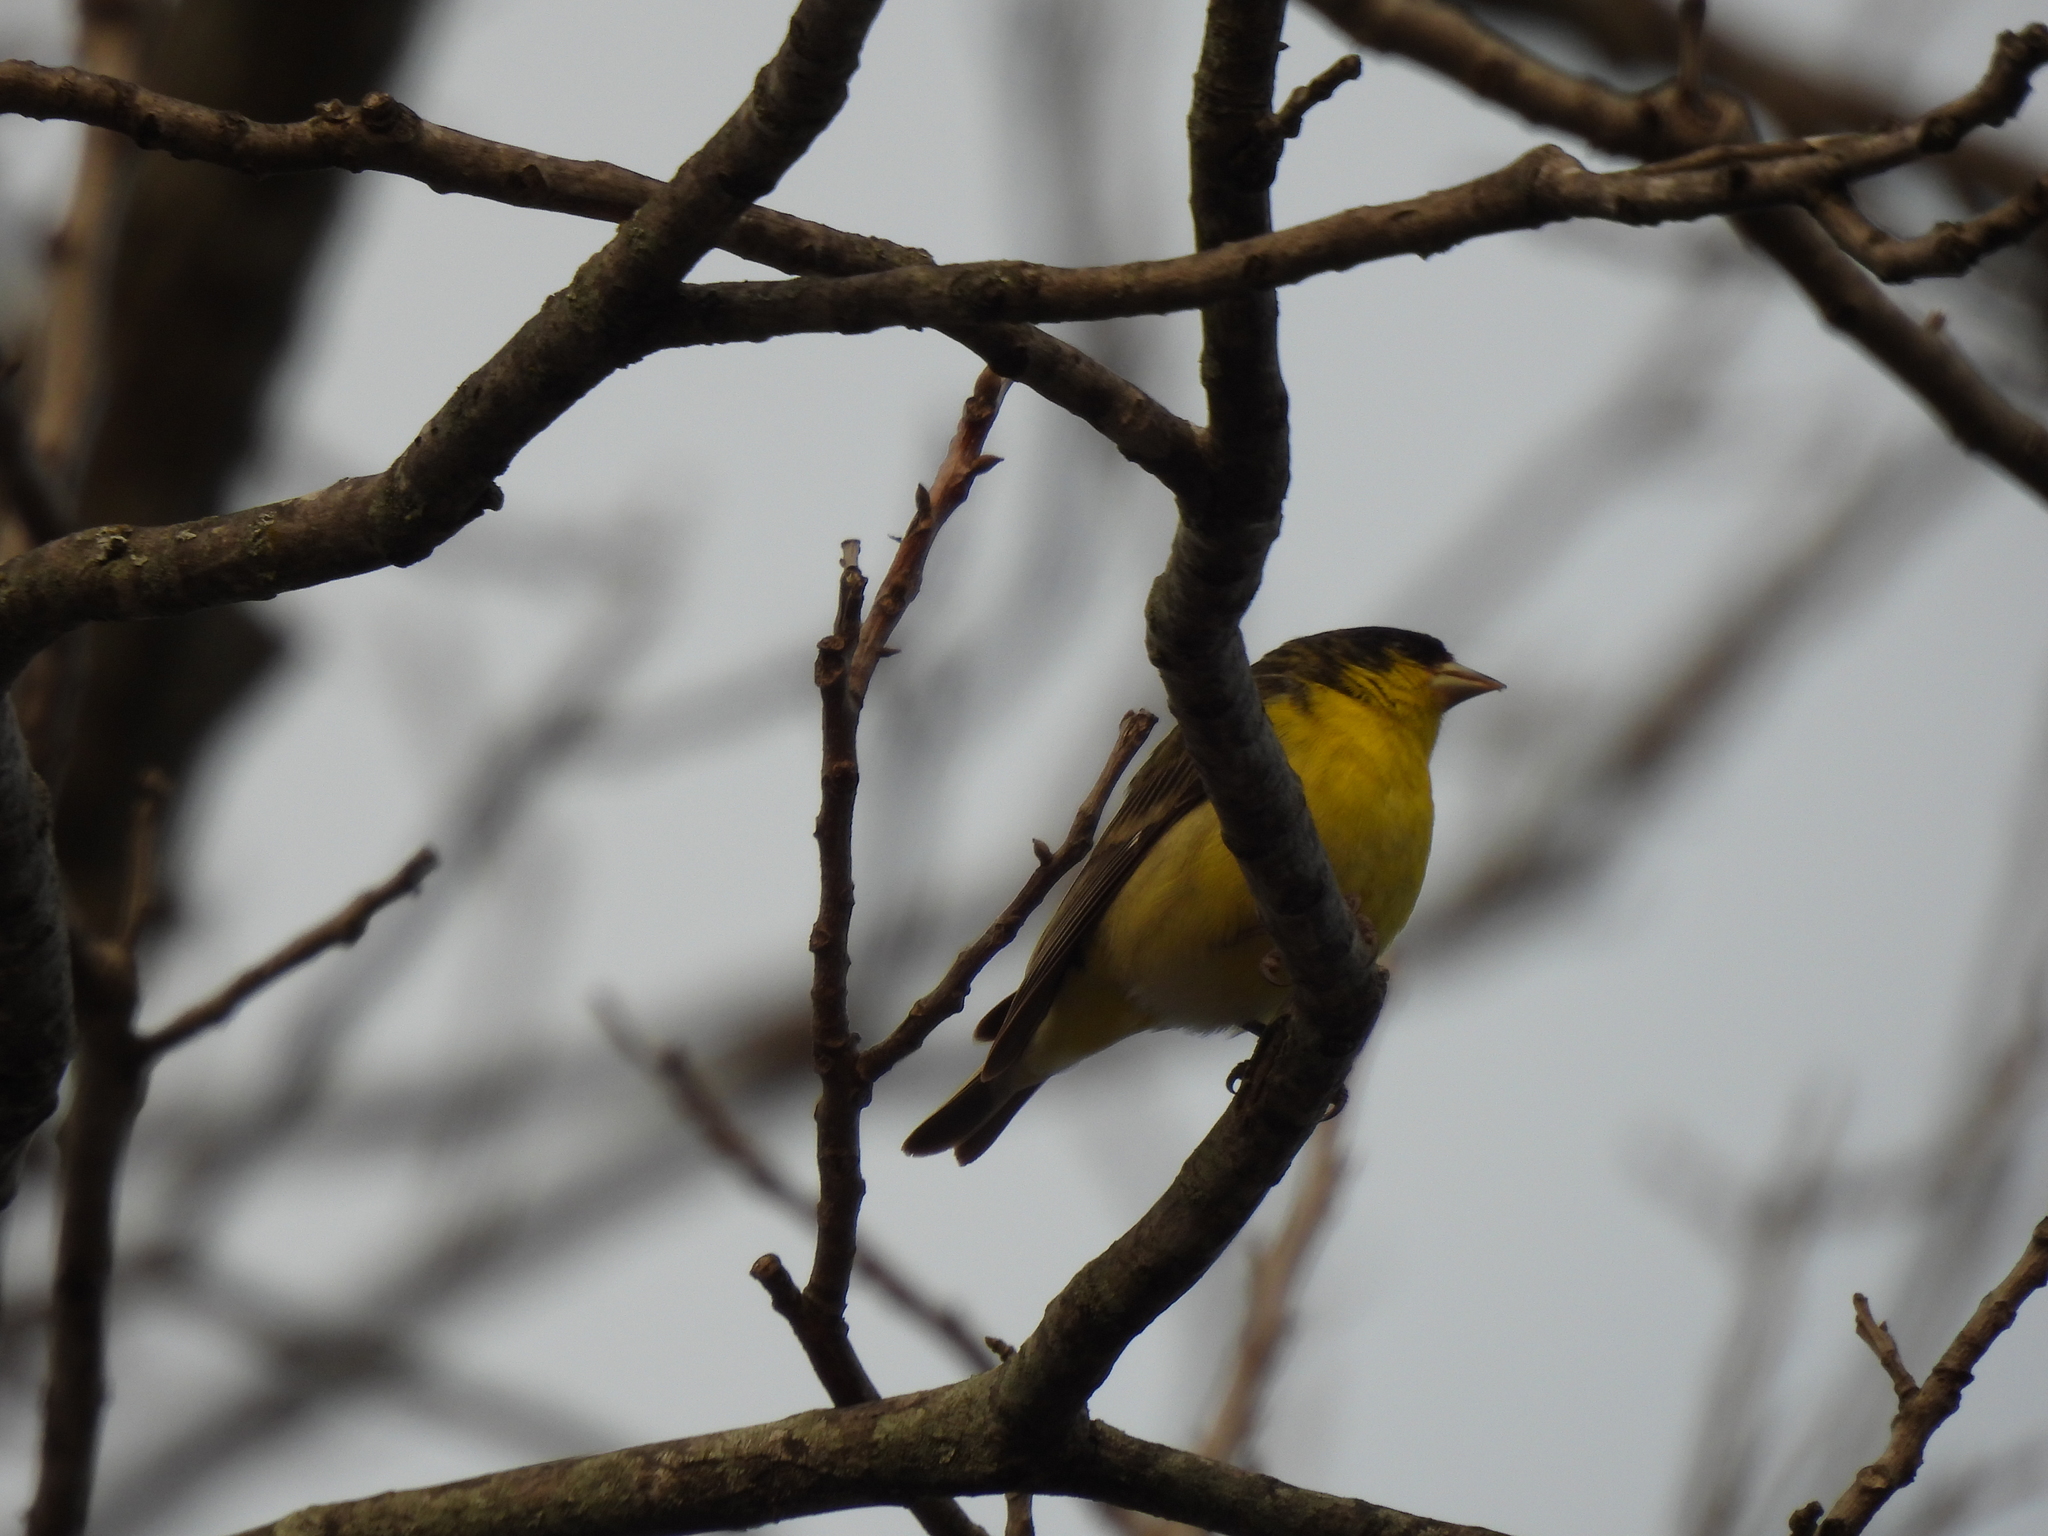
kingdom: Animalia
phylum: Chordata
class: Aves
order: Passeriformes
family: Fringillidae
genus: Spinus
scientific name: Spinus psaltria
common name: Lesser goldfinch
